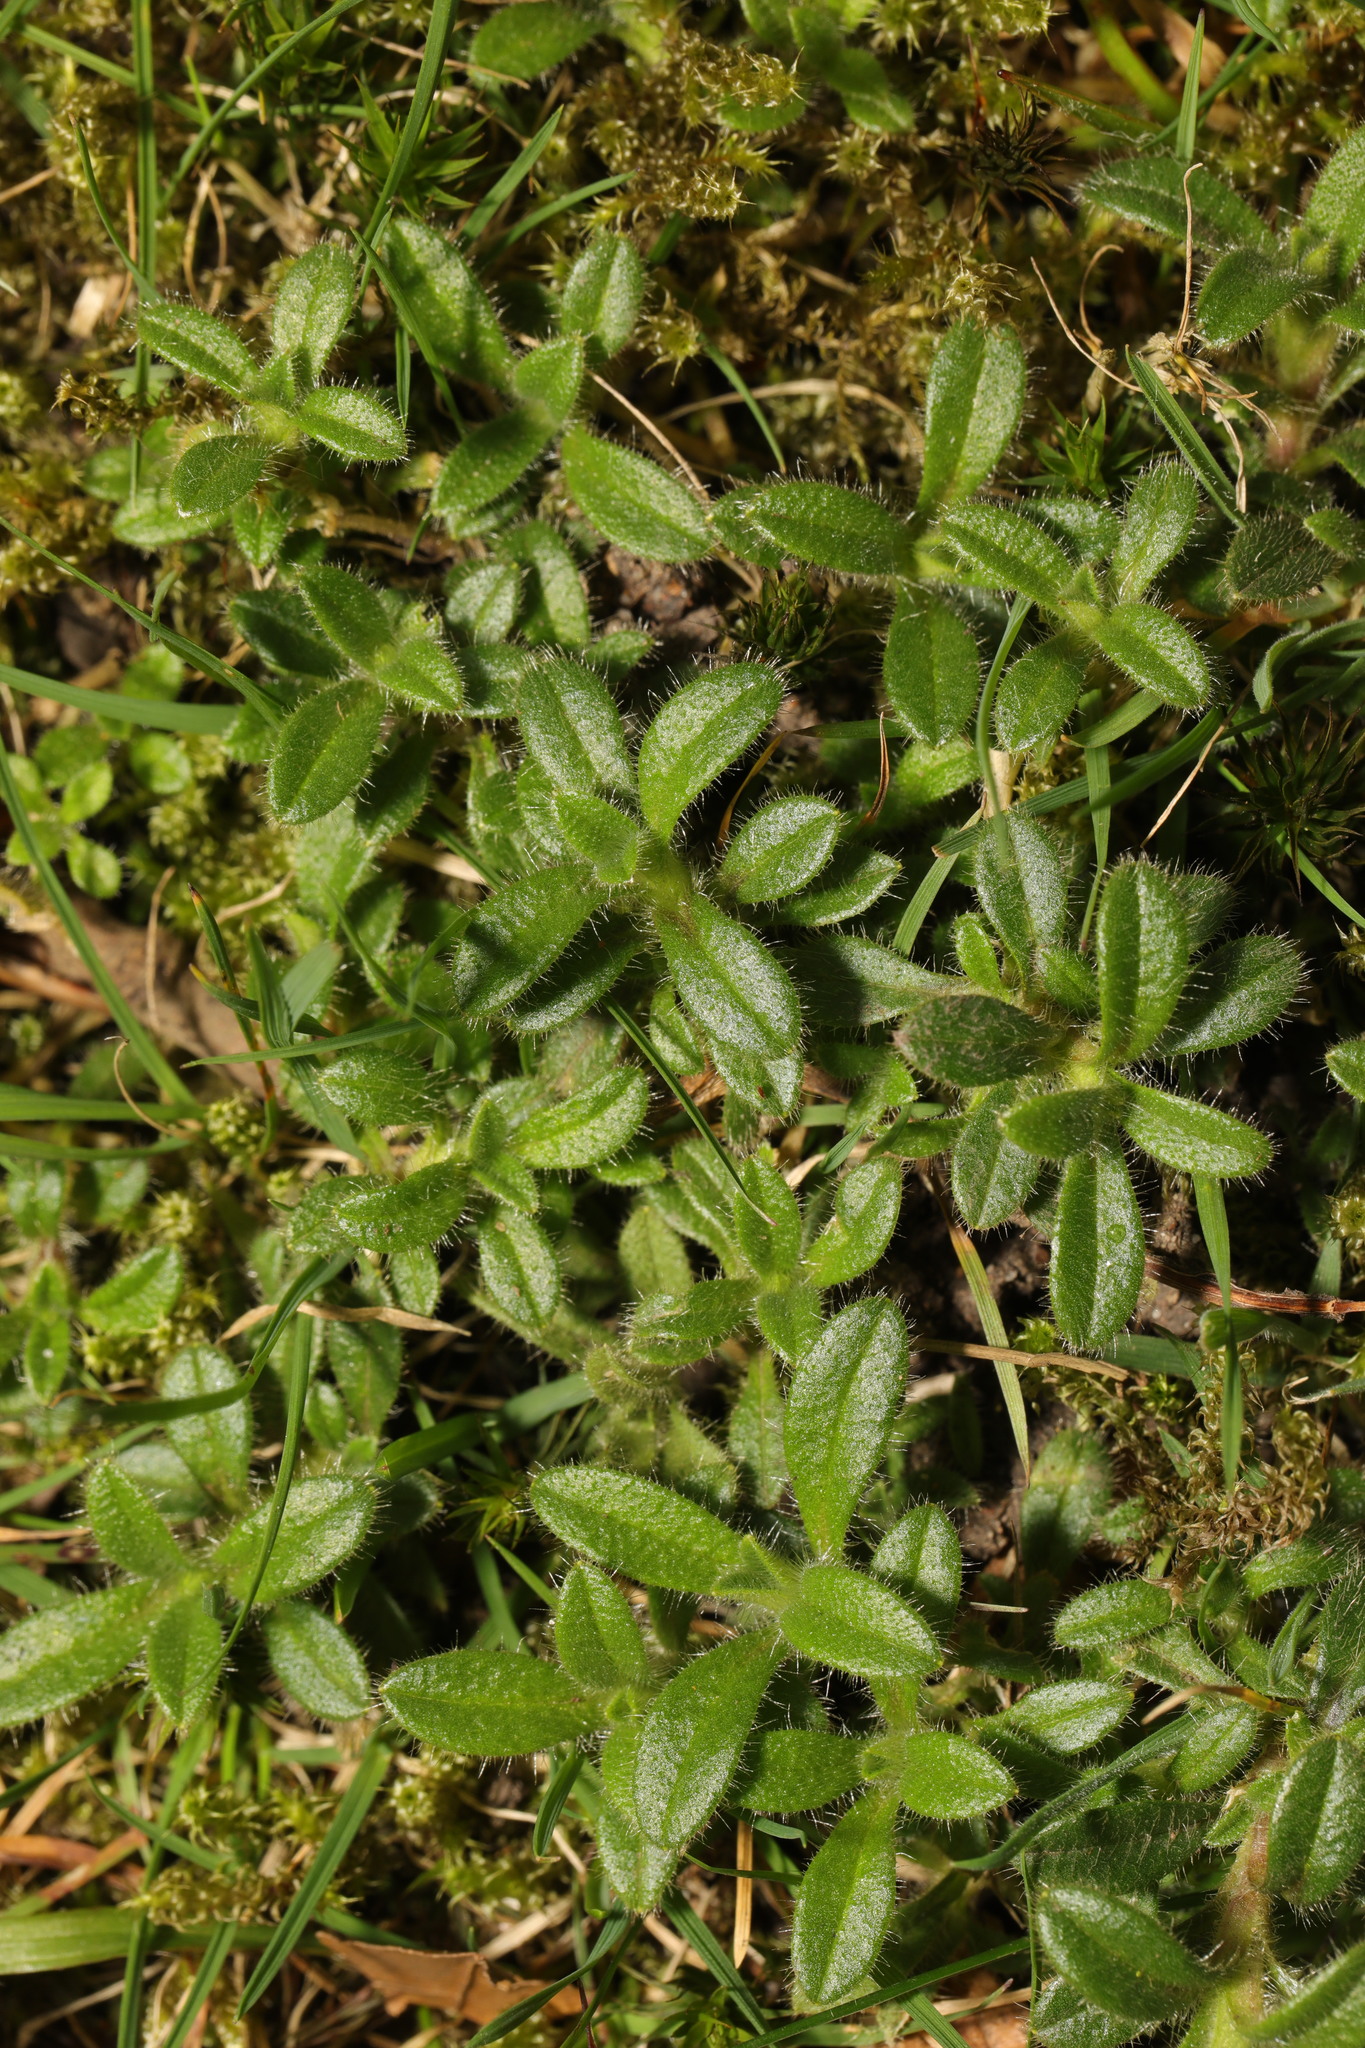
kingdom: Plantae
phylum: Tracheophyta
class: Magnoliopsida
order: Caryophyllales
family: Caryophyllaceae
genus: Cerastium
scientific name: Cerastium fontanum
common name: Common mouse-ear
